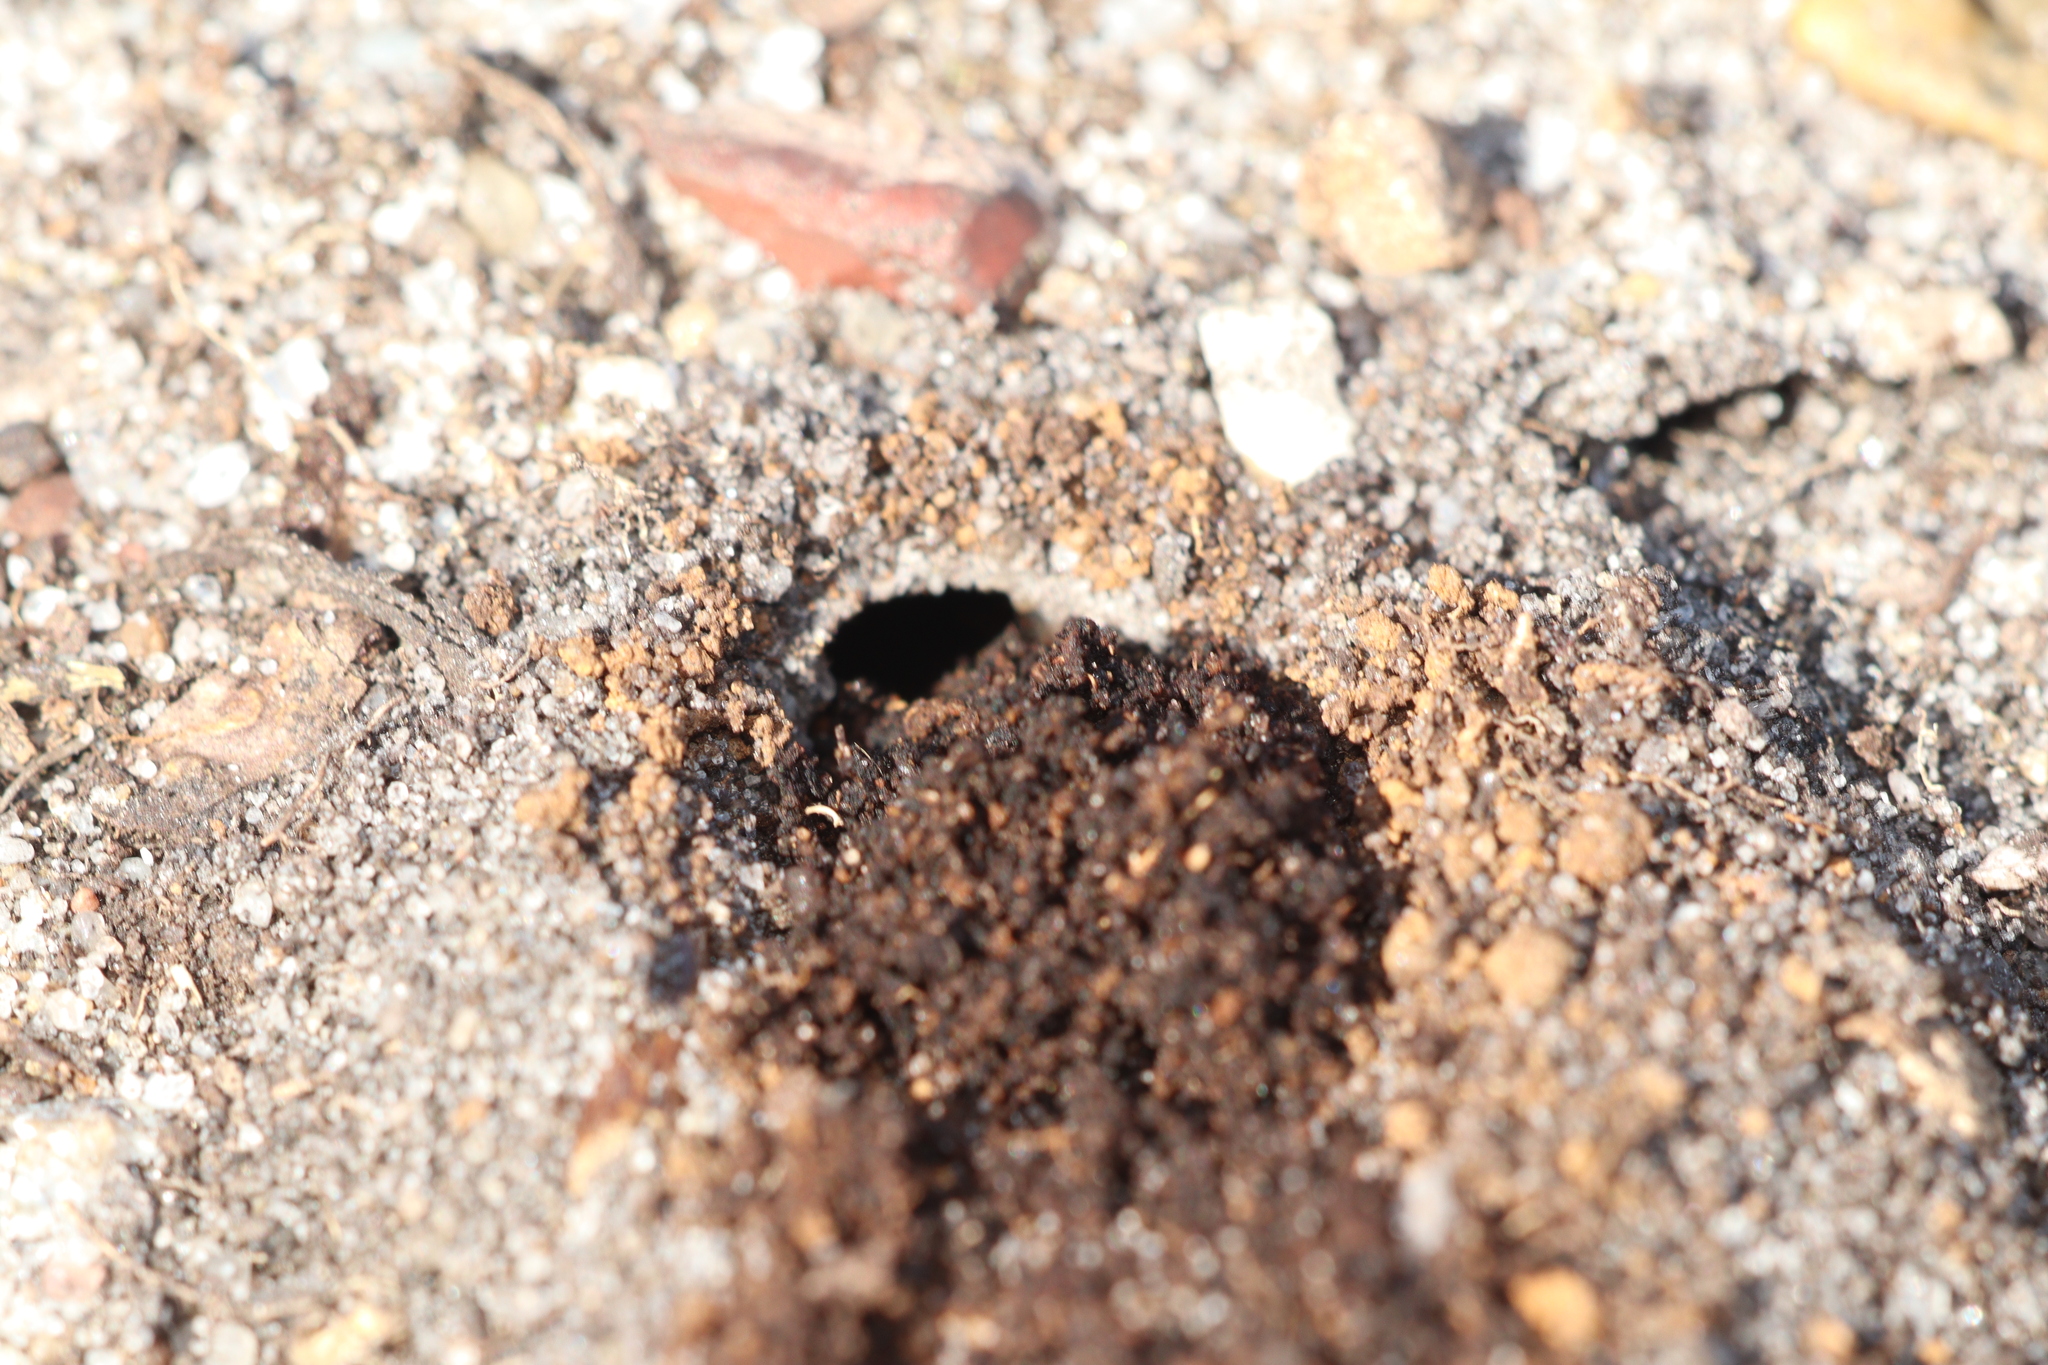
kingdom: Animalia
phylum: Arthropoda
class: Insecta
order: Hymenoptera
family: Crabronidae
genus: Philanthus
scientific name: Philanthus triangulum
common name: Bee wolf
